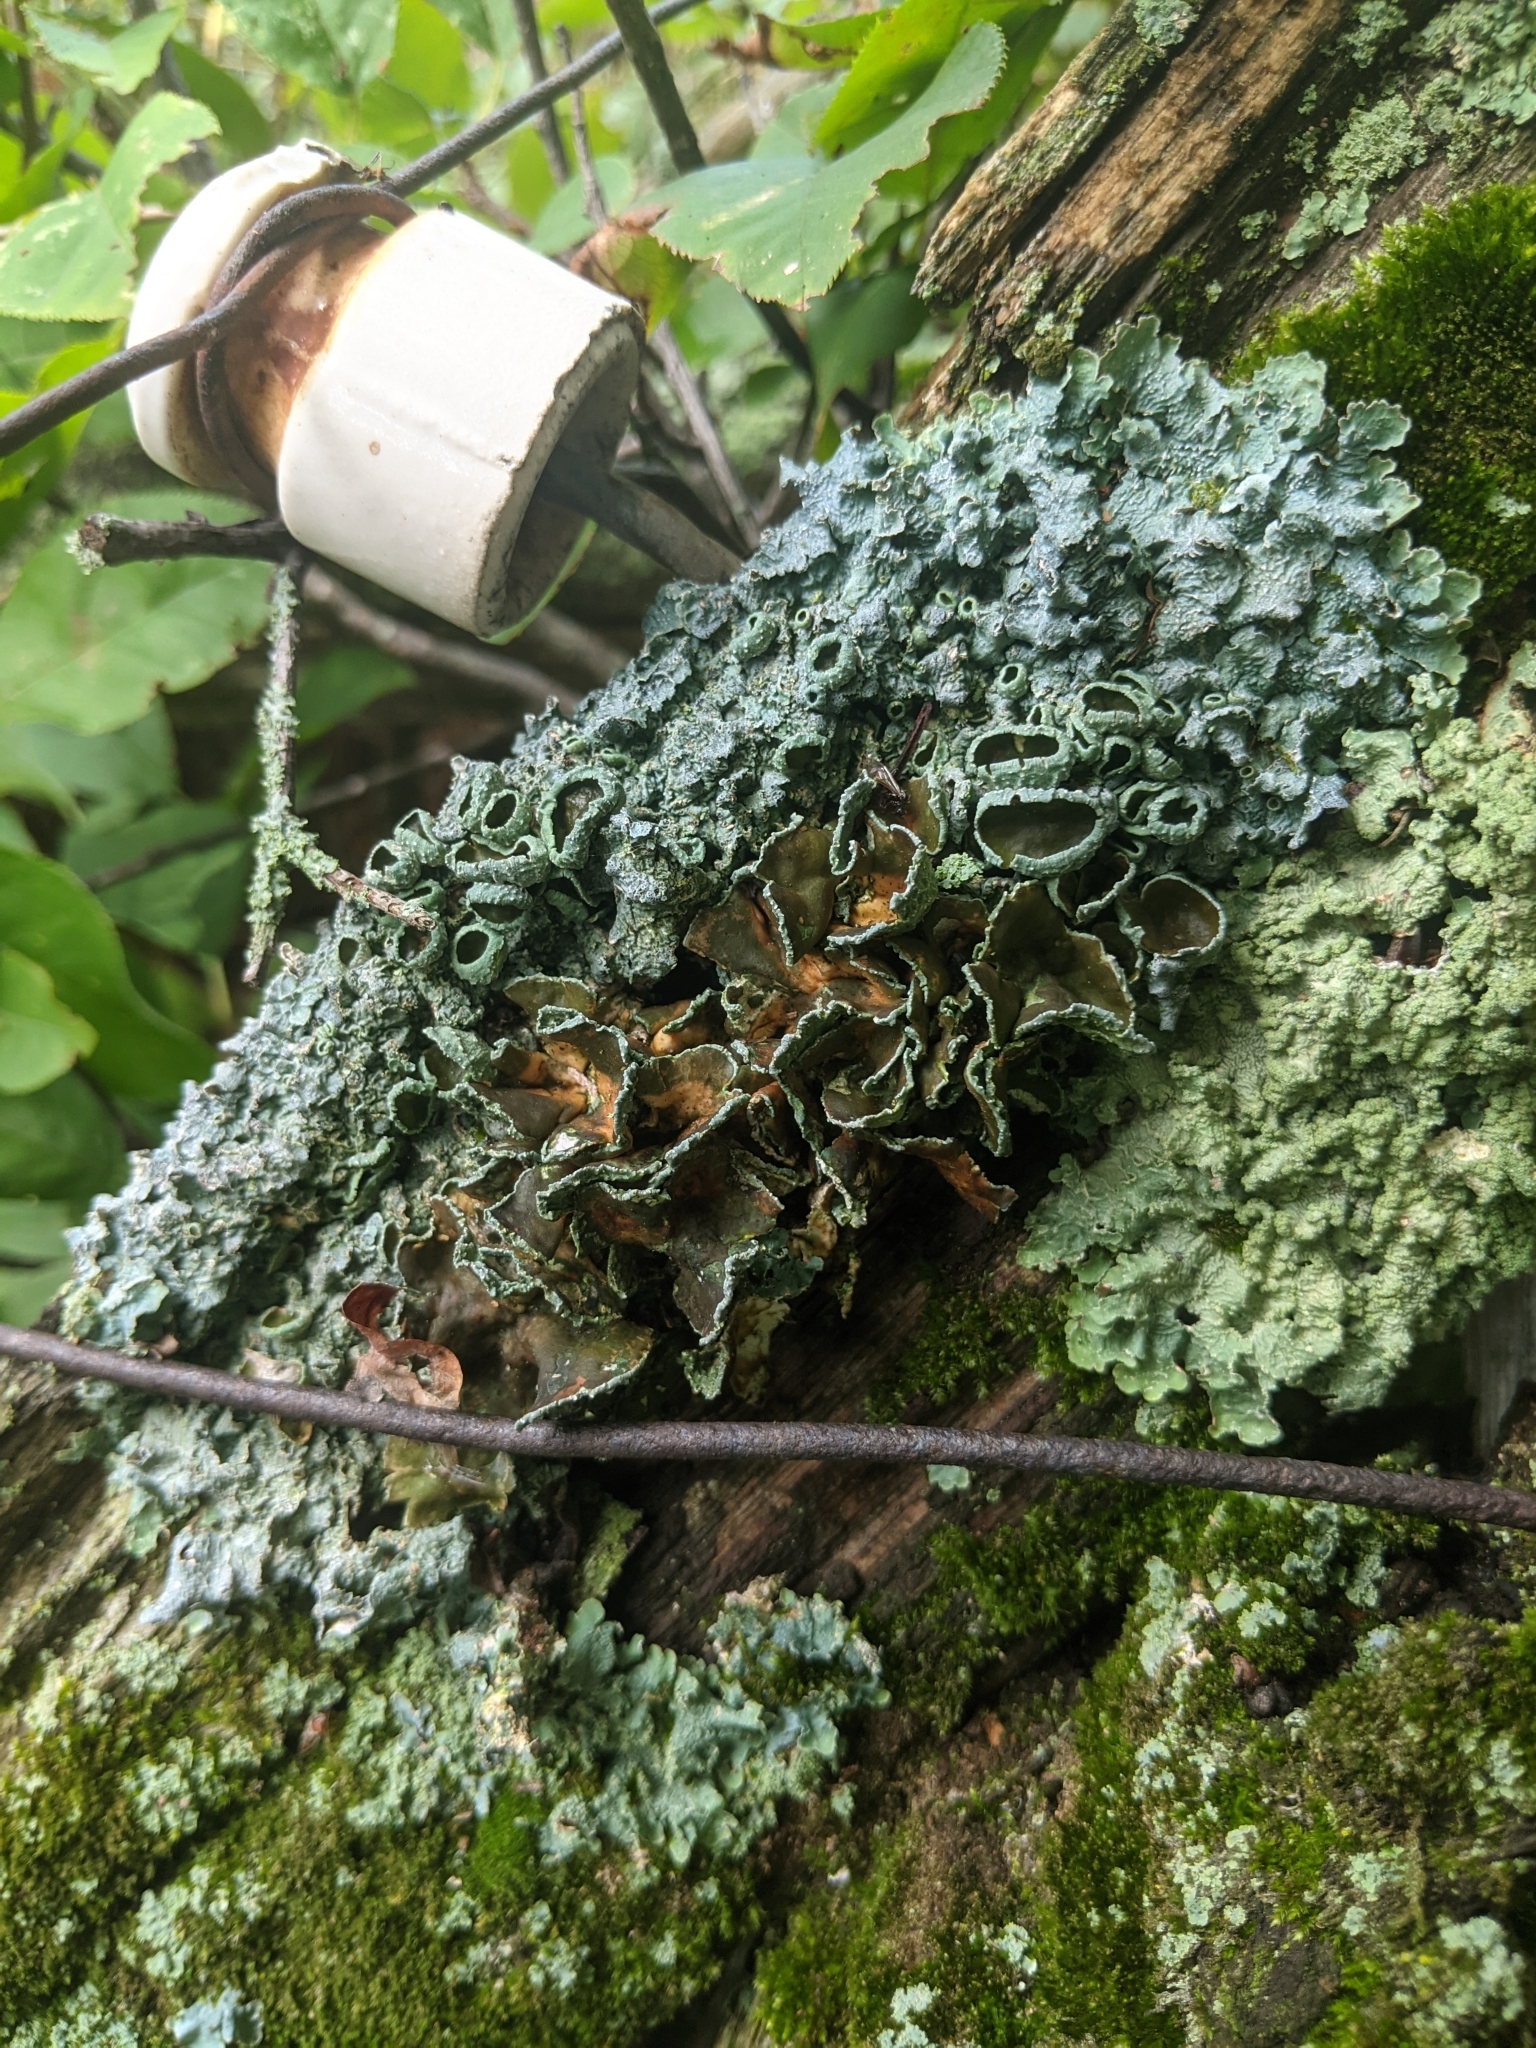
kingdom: Fungi
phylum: Ascomycota
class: Lecanoromycetes
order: Lecanorales
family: Parmeliaceae
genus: Punctelia
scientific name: Punctelia bolliana
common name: Eastern speckled shield lichen
